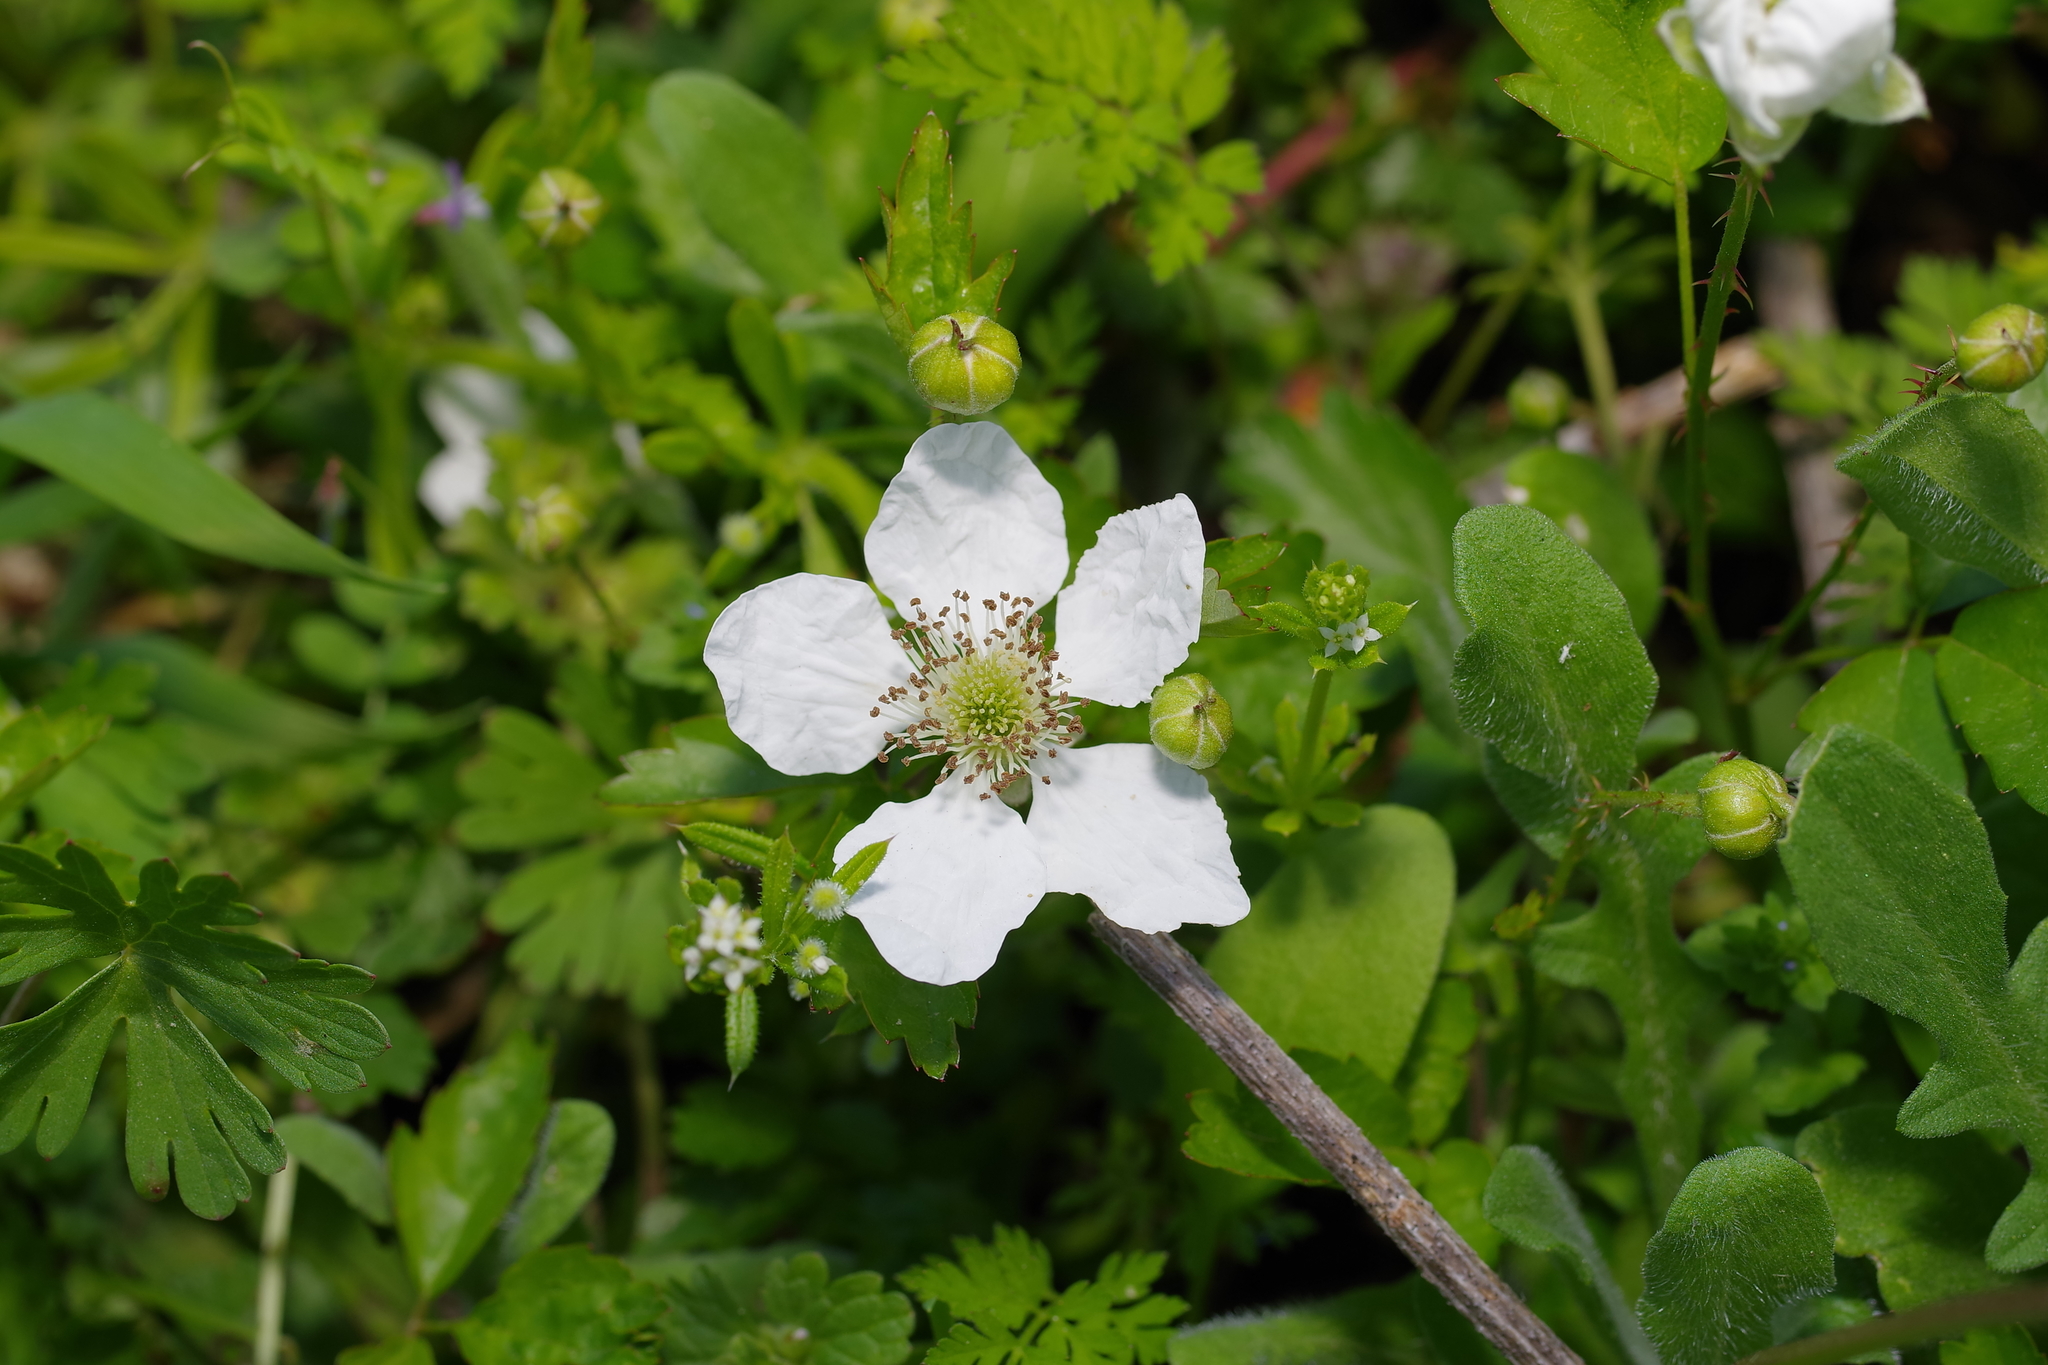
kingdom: Plantae
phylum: Tracheophyta
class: Magnoliopsida
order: Rosales
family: Rosaceae
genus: Rubus
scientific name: Rubus trivialis
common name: Southern dewberry
